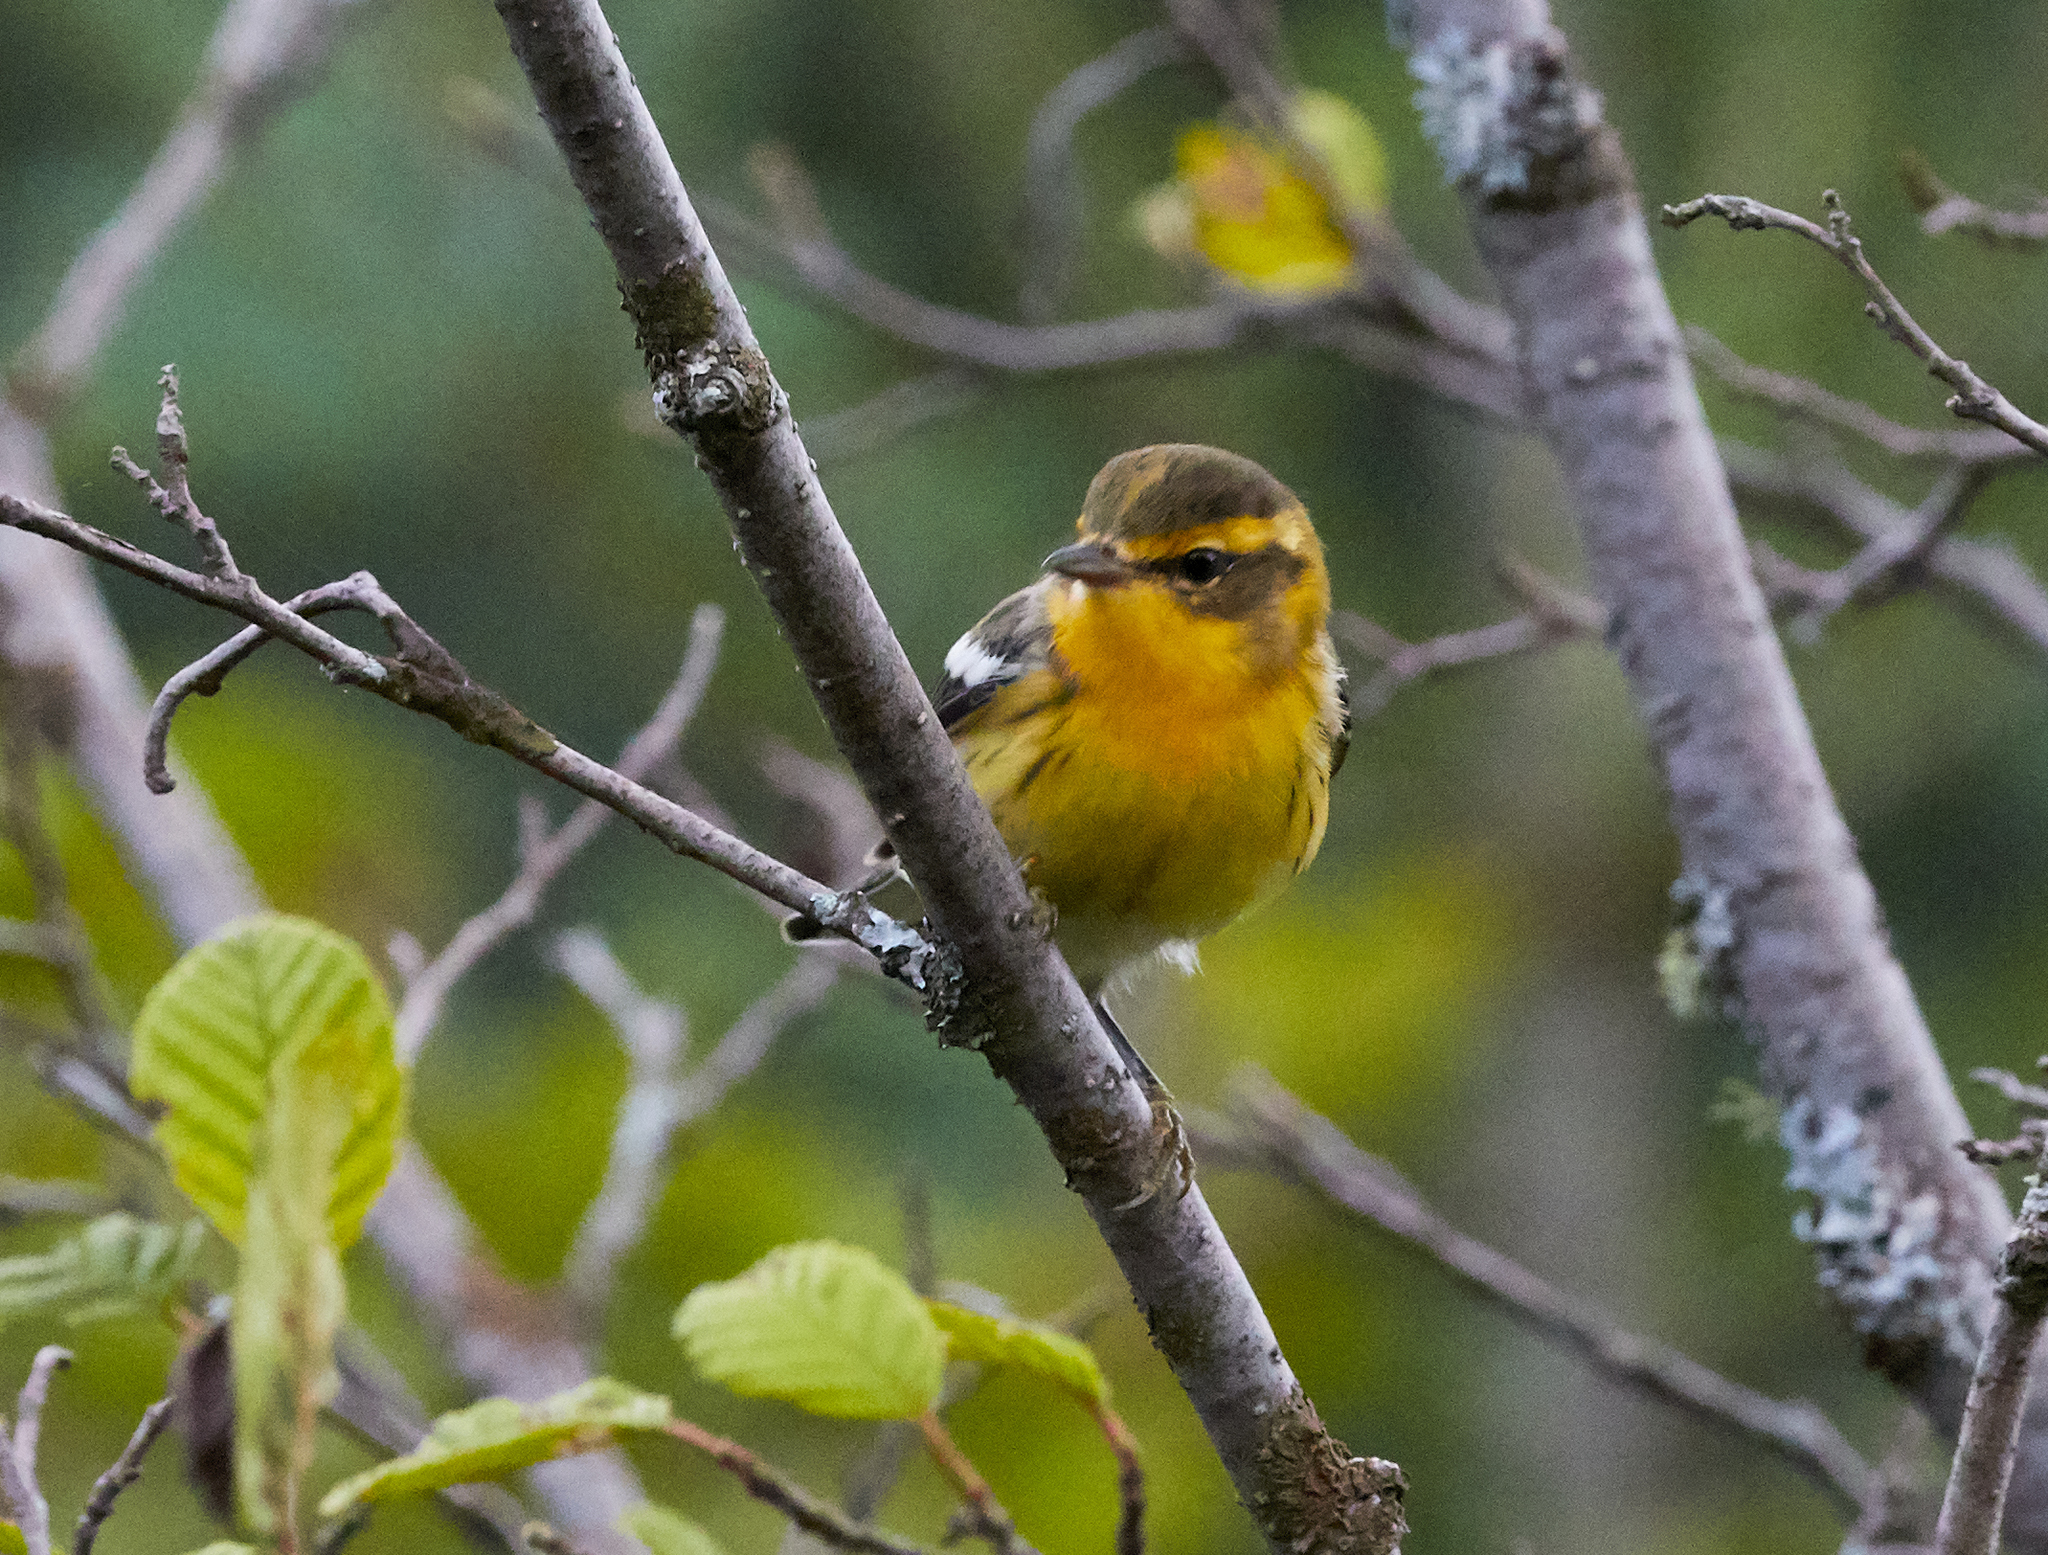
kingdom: Animalia
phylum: Chordata
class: Aves
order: Passeriformes
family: Parulidae
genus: Setophaga
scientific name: Setophaga fusca
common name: Blackburnian warbler
